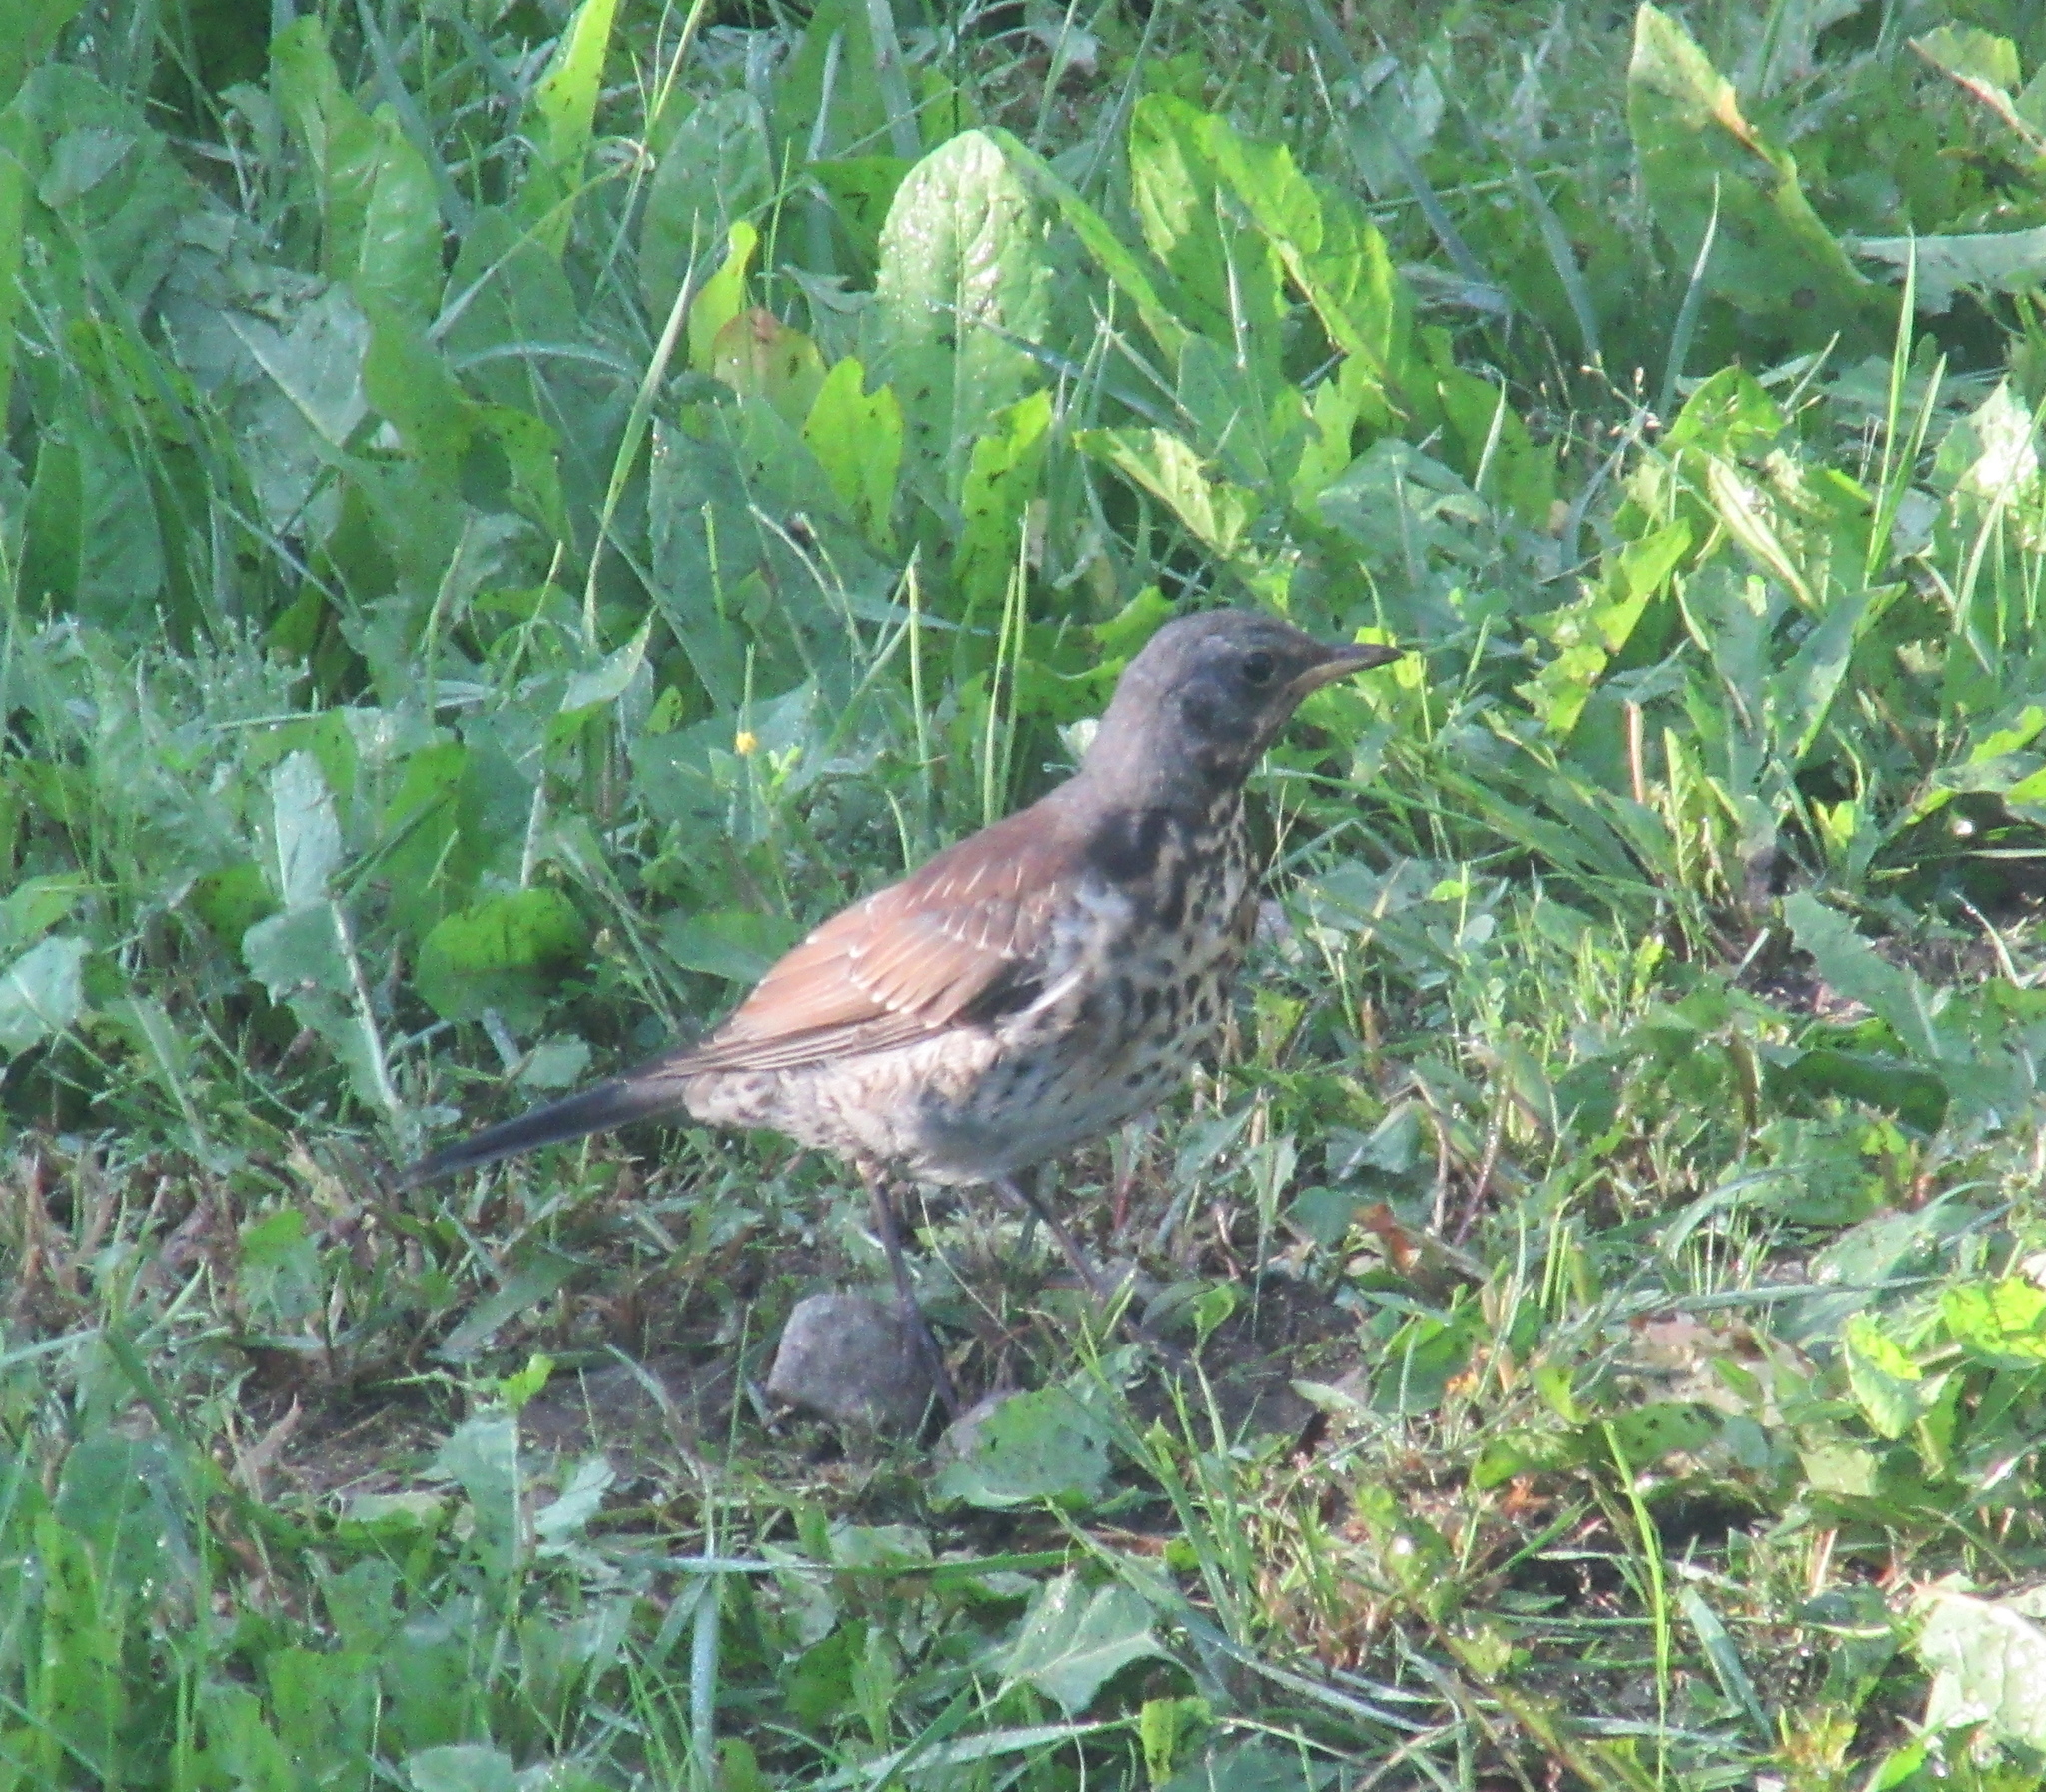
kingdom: Animalia
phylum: Chordata
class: Aves
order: Passeriformes
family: Turdidae
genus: Turdus
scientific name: Turdus pilaris
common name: Fieldfare
